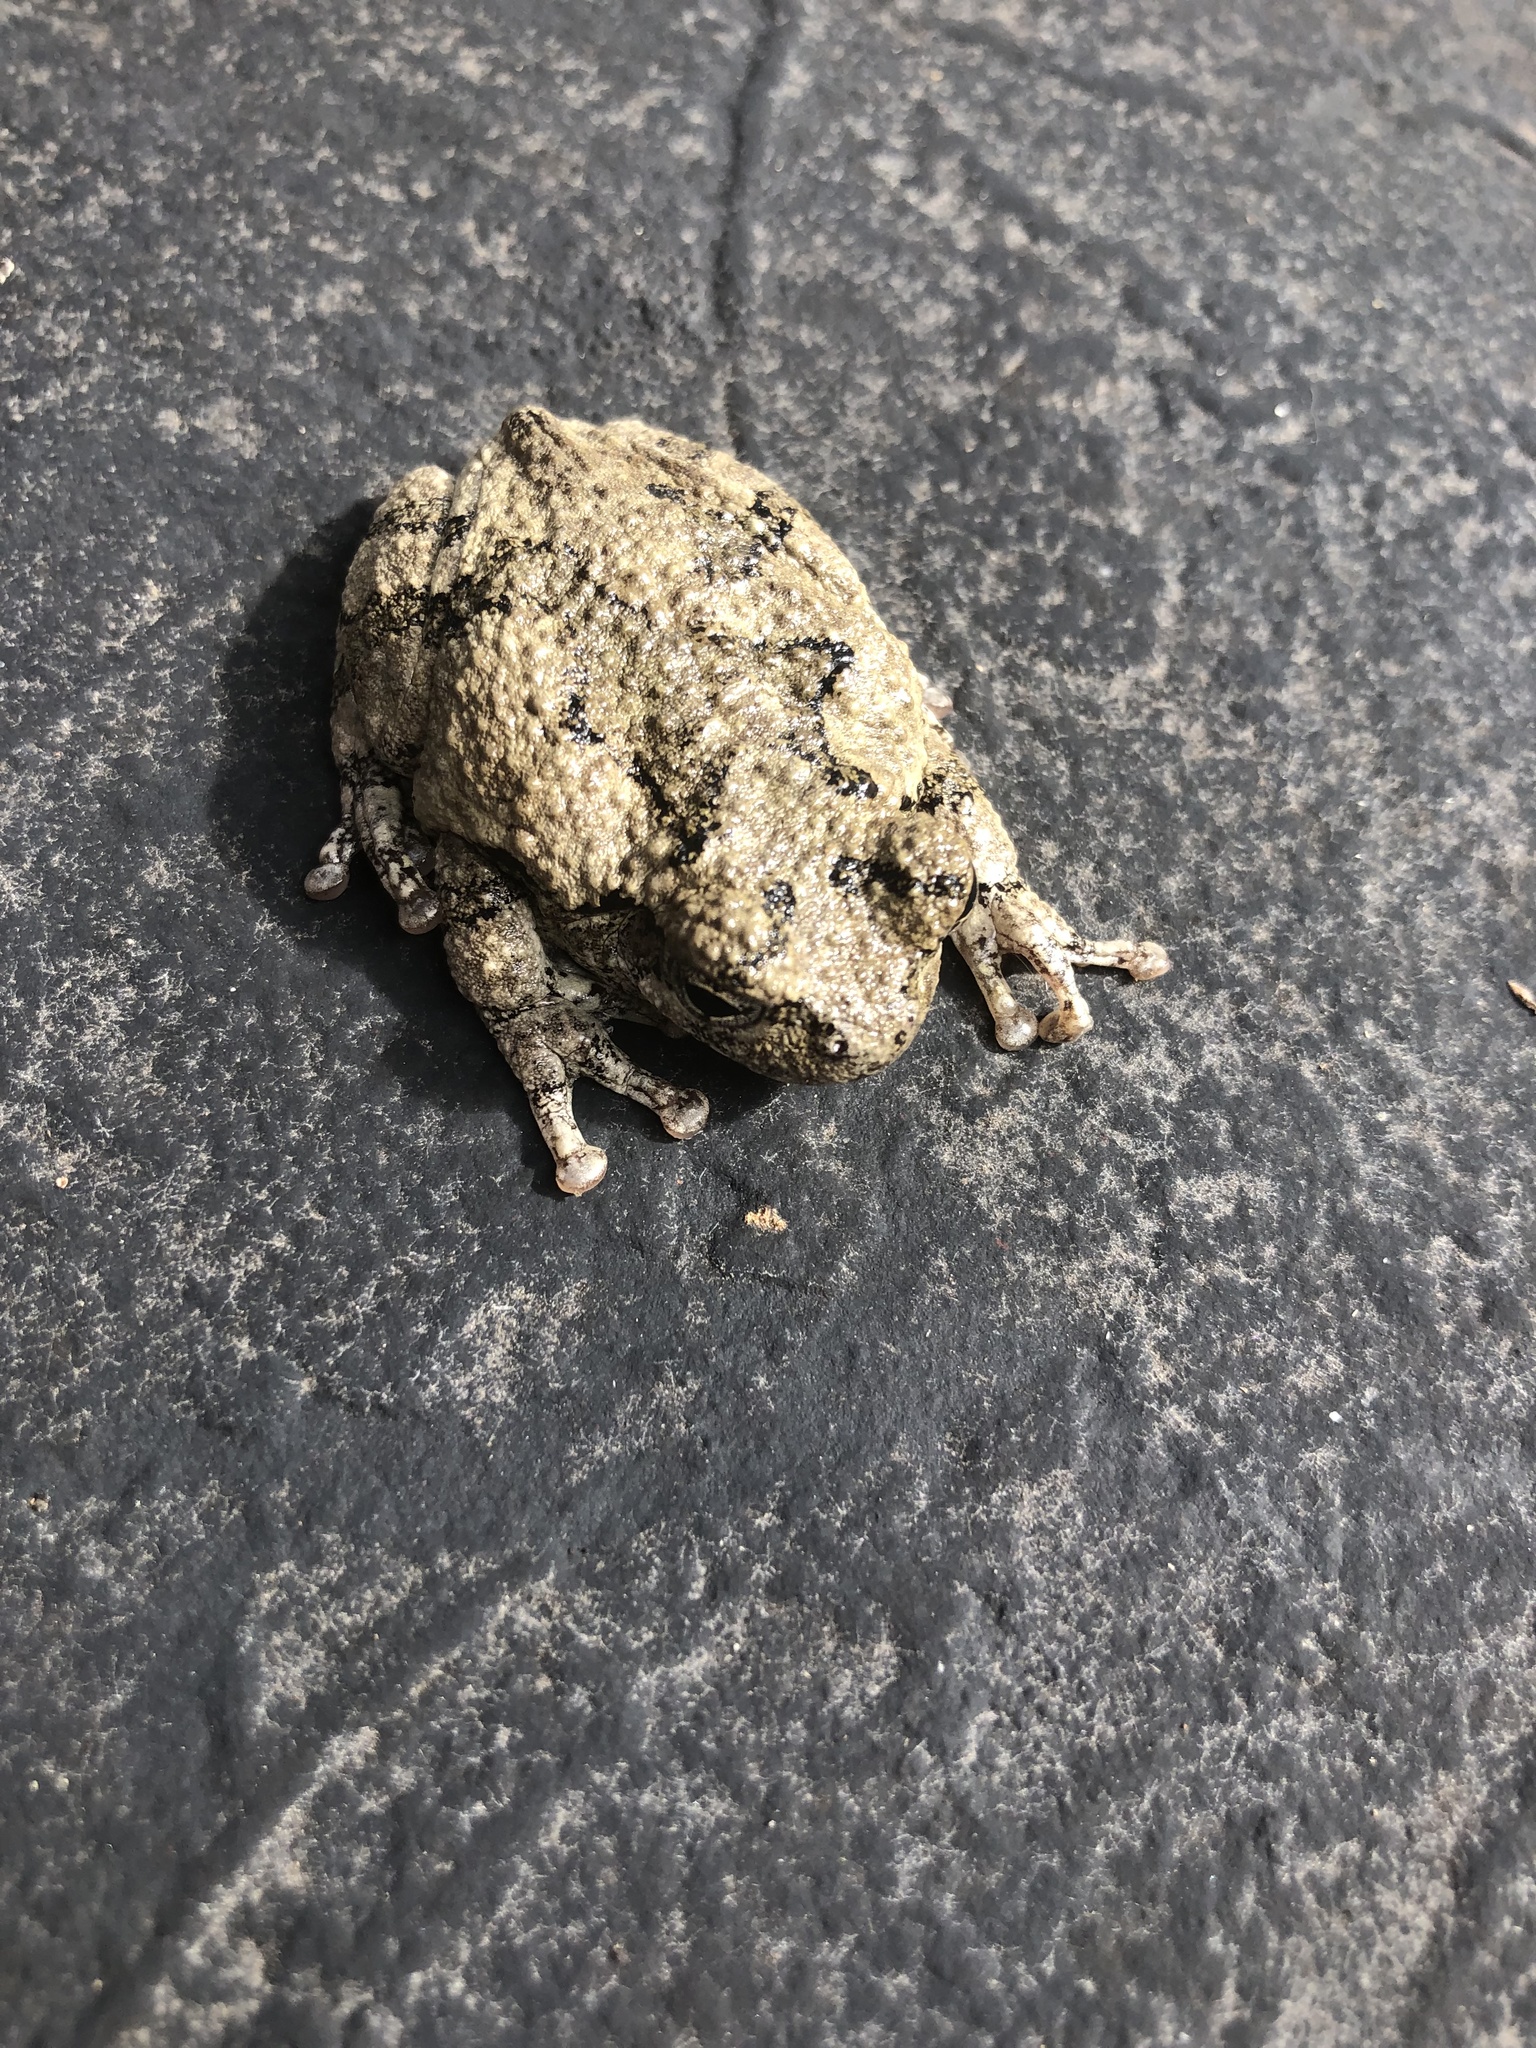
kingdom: Animalia
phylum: Chordata
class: Amphibia
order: Anura
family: Hylidae
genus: Dryophytes
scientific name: Dryophytes chrysoscelis
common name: Cope's gray treefrog
